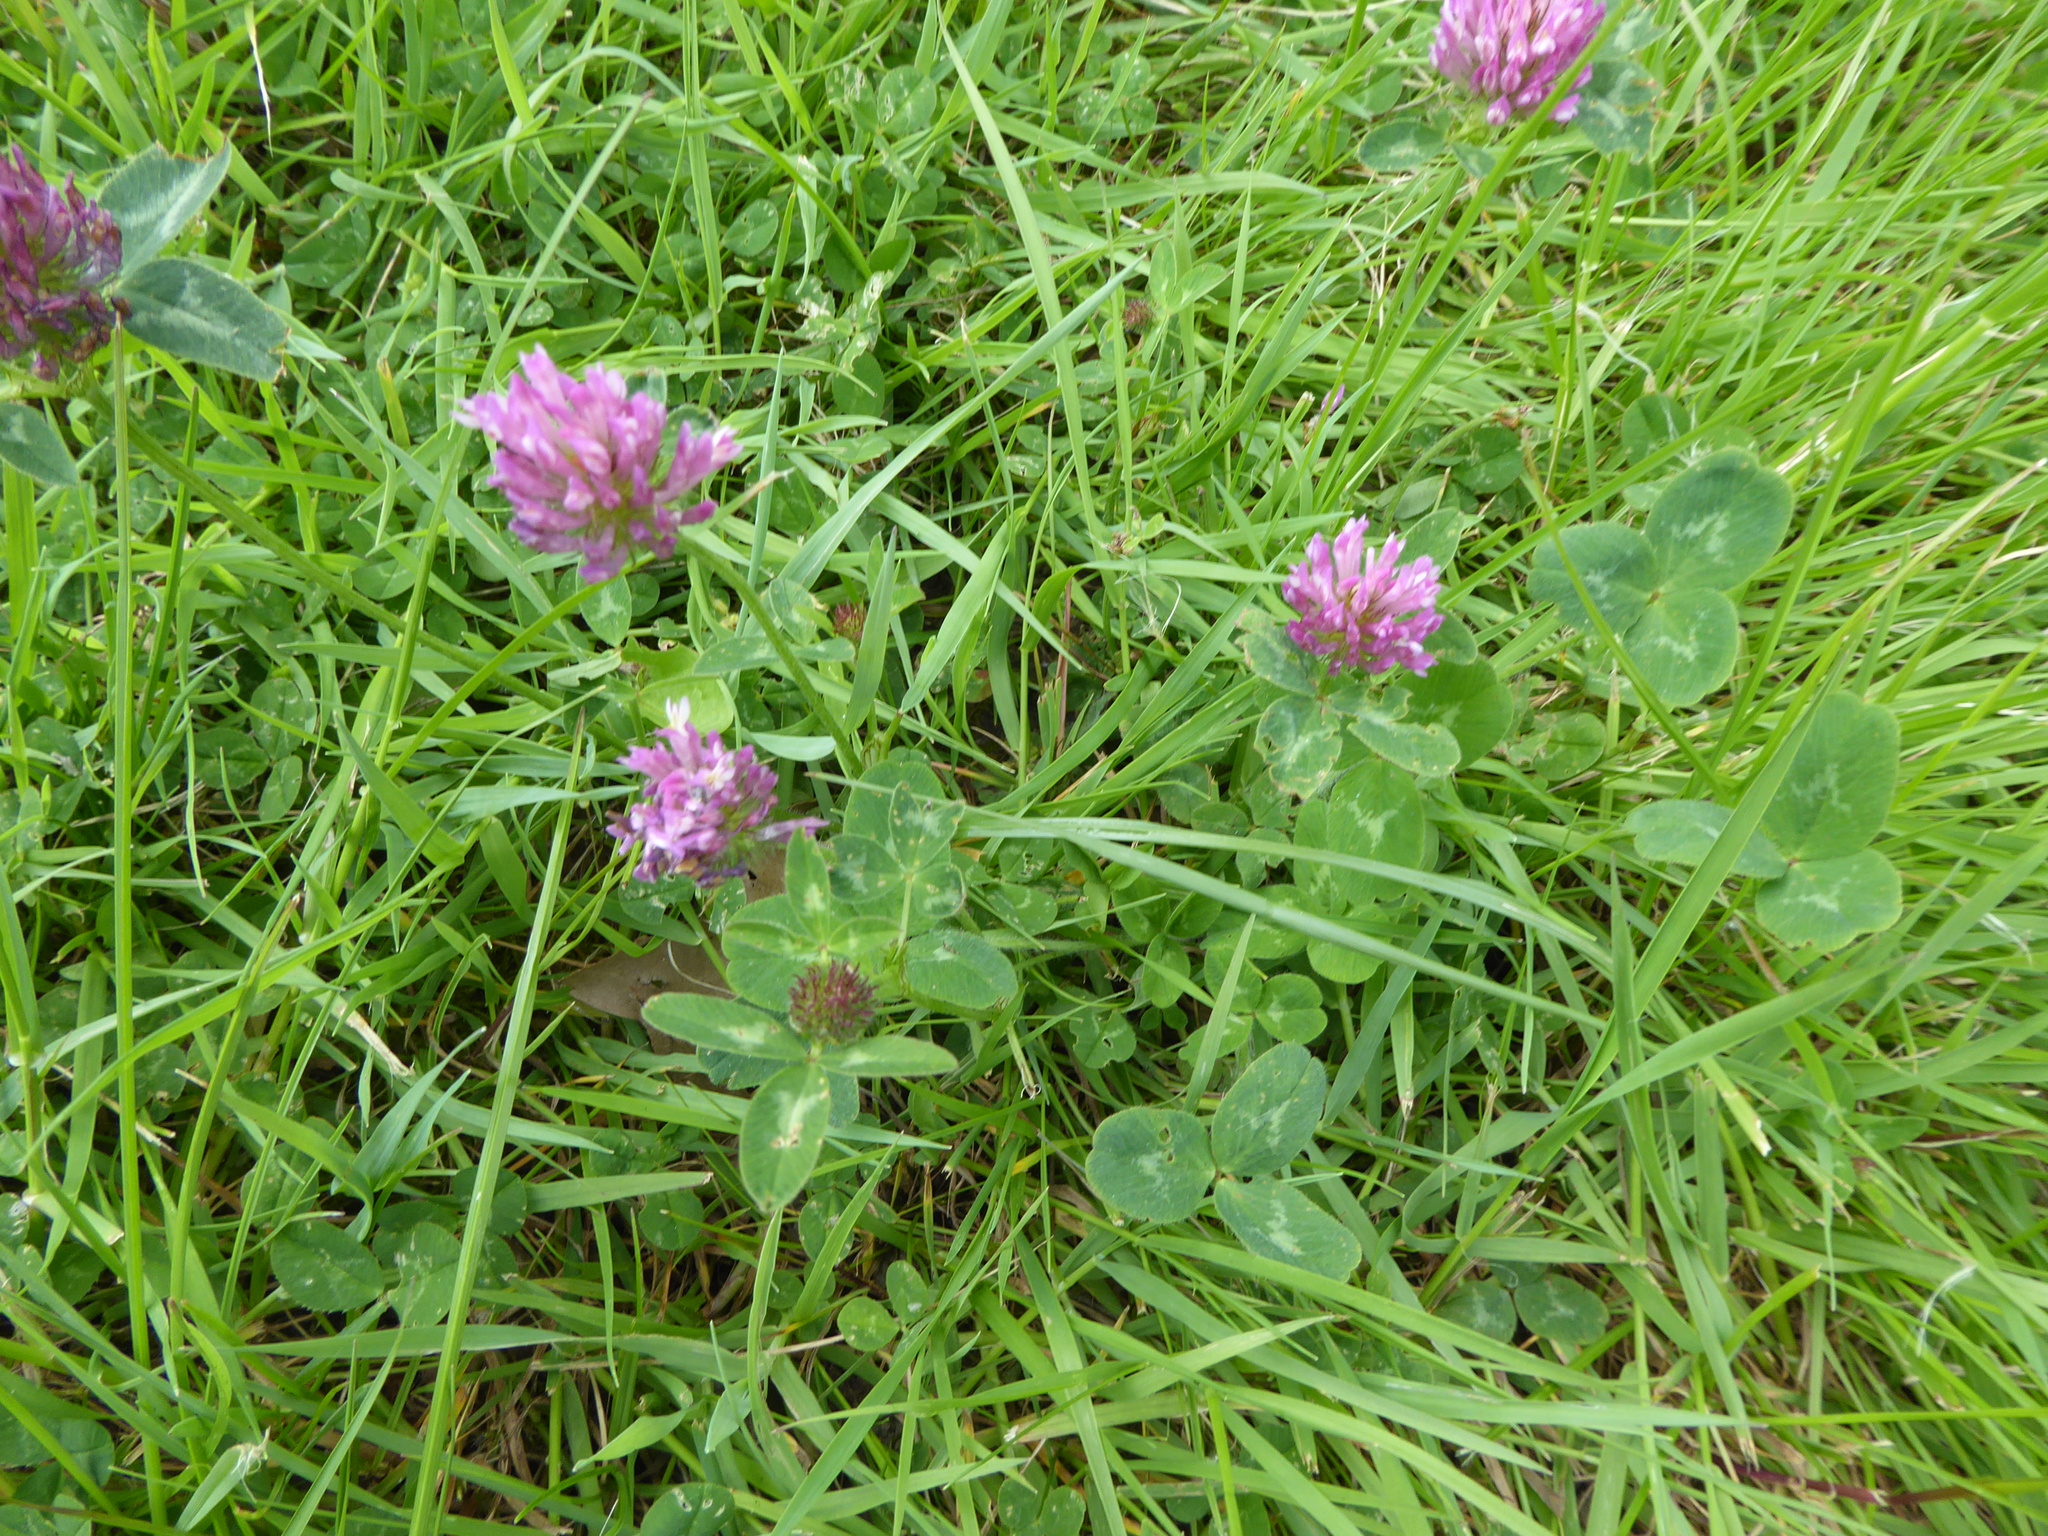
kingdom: Plantae
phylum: Tracheophyta
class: Magnoliopsida
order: Fabales
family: Fabaceae
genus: Trifolium
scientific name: Trifolium pratense
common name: Red clover
